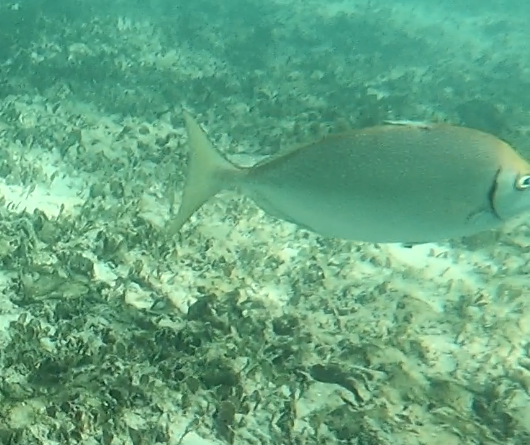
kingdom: Animalia
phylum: Chordata
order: Perciformes
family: Siganidae
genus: Siganus
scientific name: Siganus fuscescens
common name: Dusky rabbitfish
